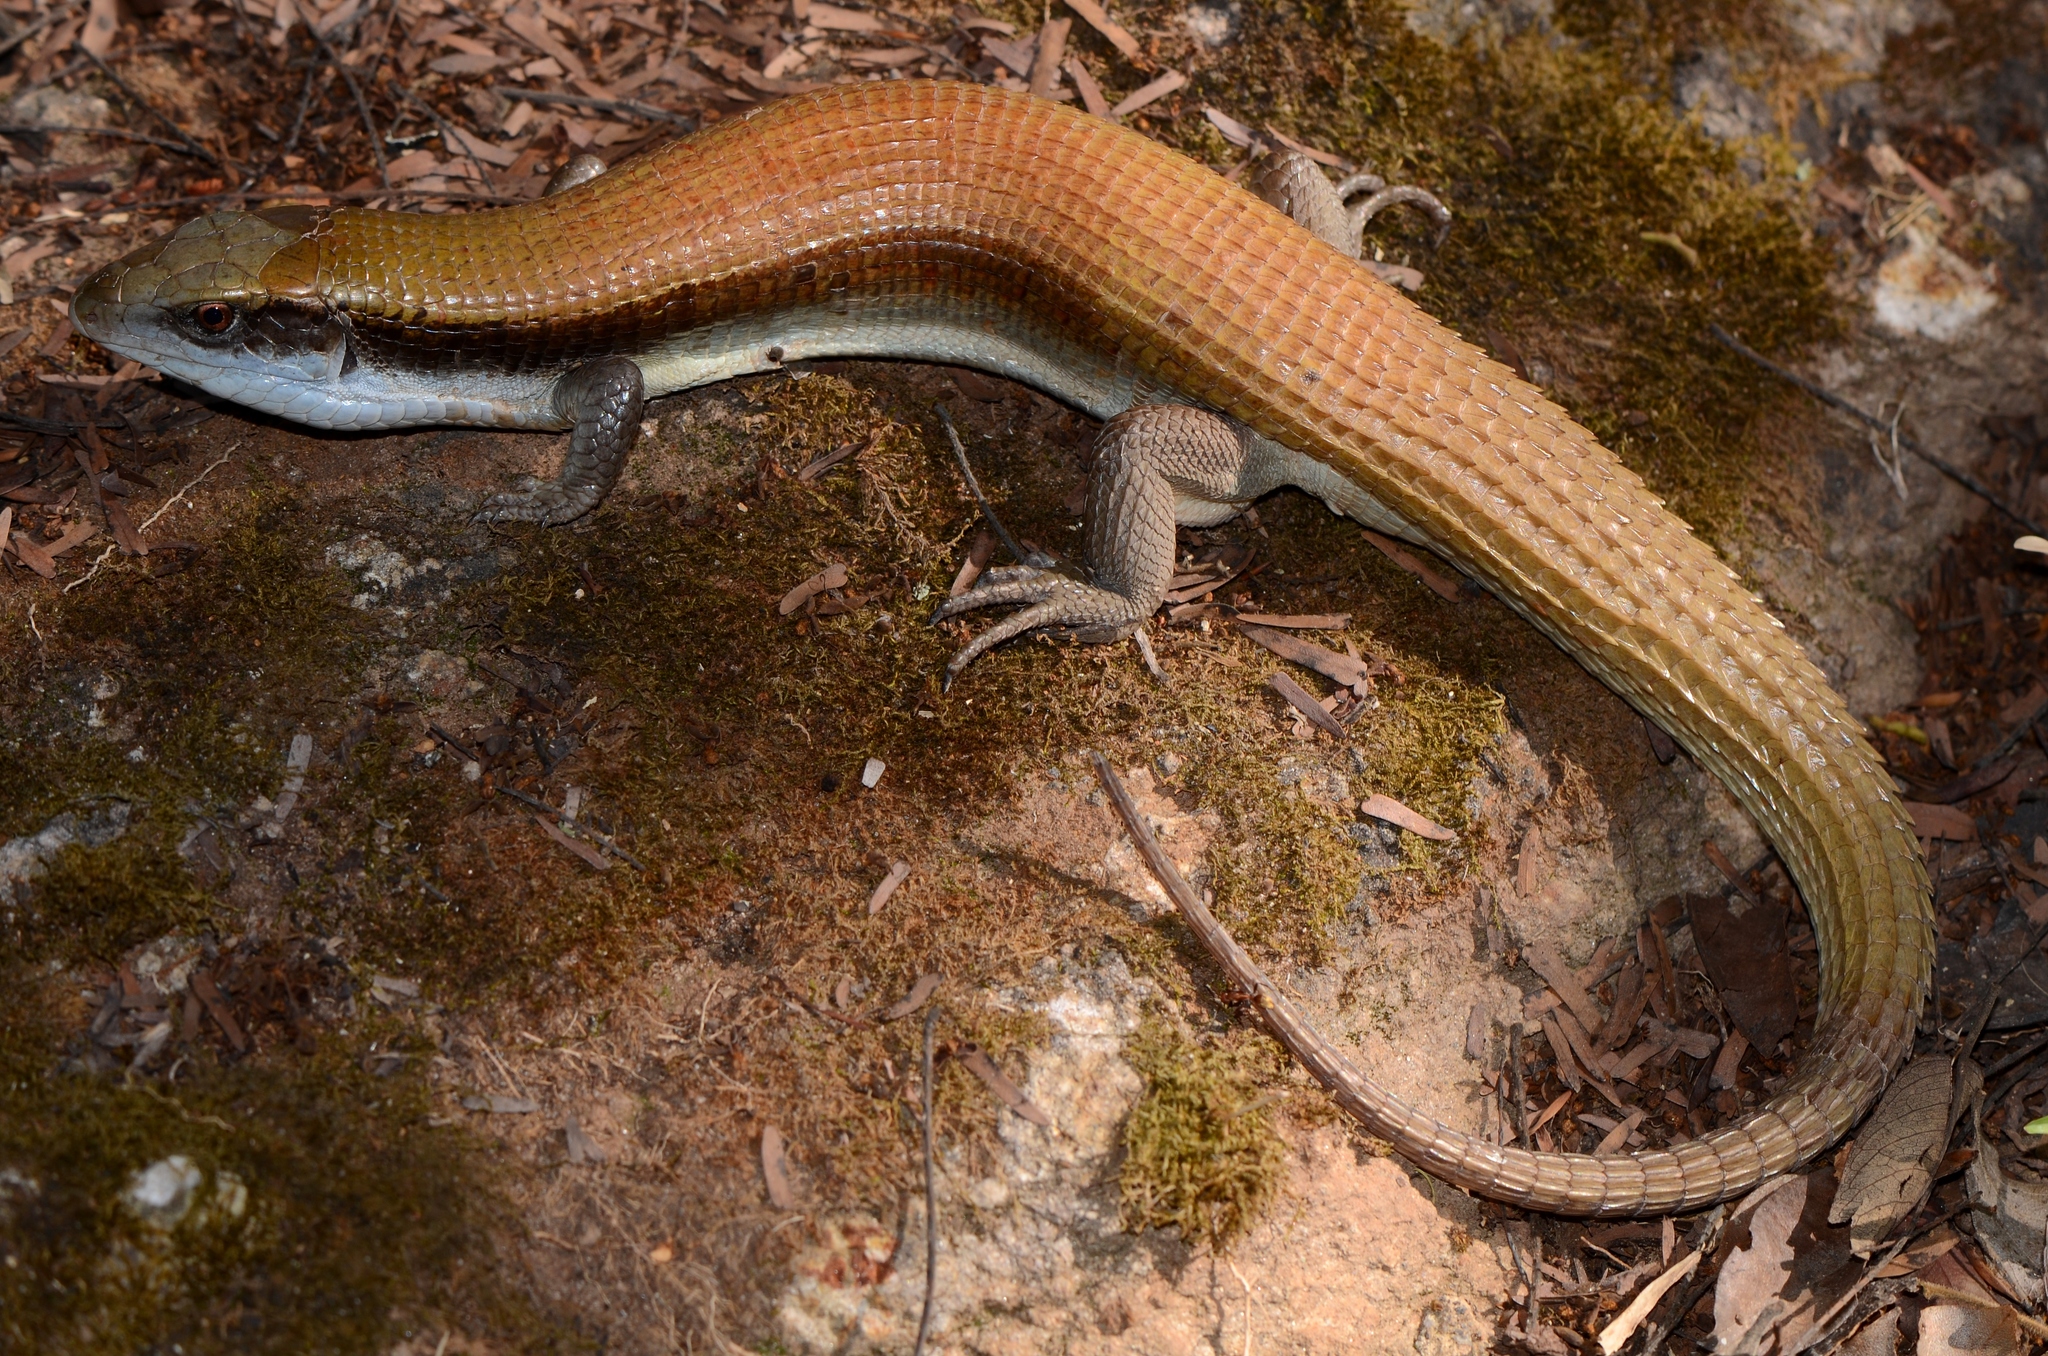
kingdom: Animalia
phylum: Chordata
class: Squamata
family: Gerrhosauridae
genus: Gerrhosaurus
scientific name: Gerrhosaurus bulsi
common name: Laurent’s plated lizard
